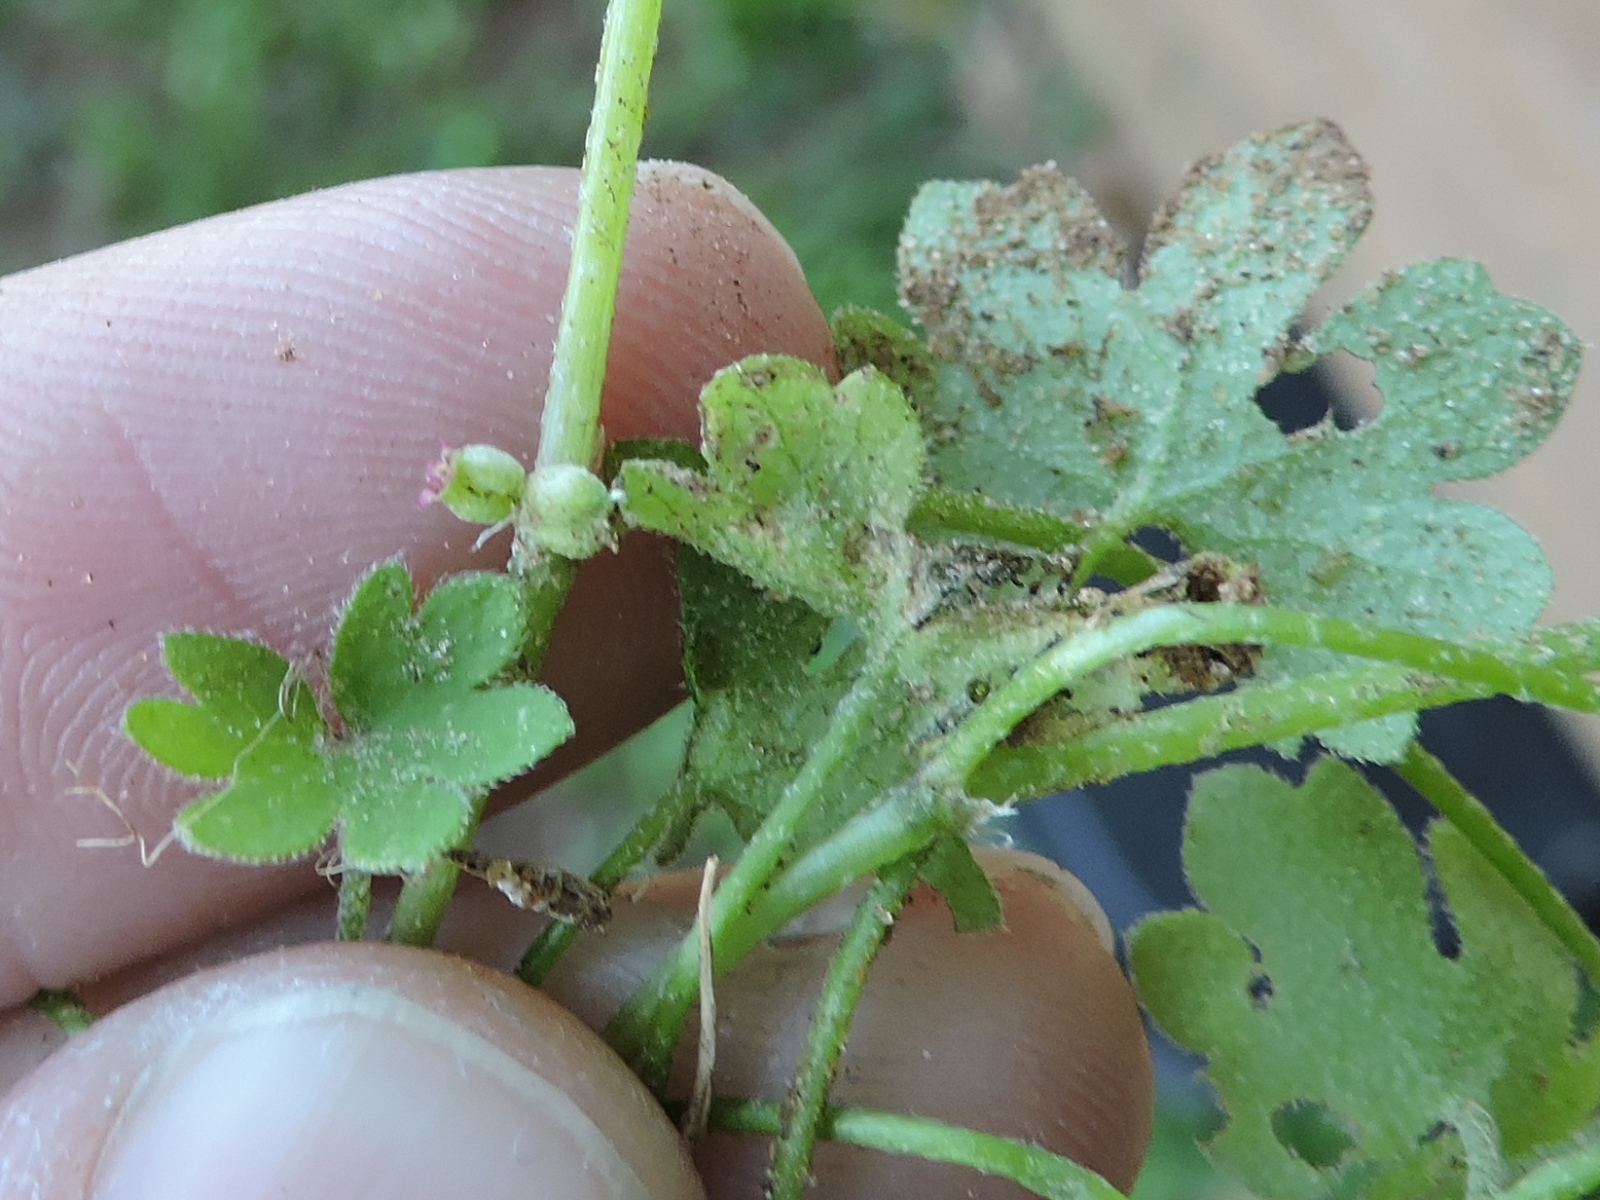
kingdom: Plantae
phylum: Tracheophyta
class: Magnoliopsida
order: Apiales
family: Apiaceae
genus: Bowlesia
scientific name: Bowlesia incana
